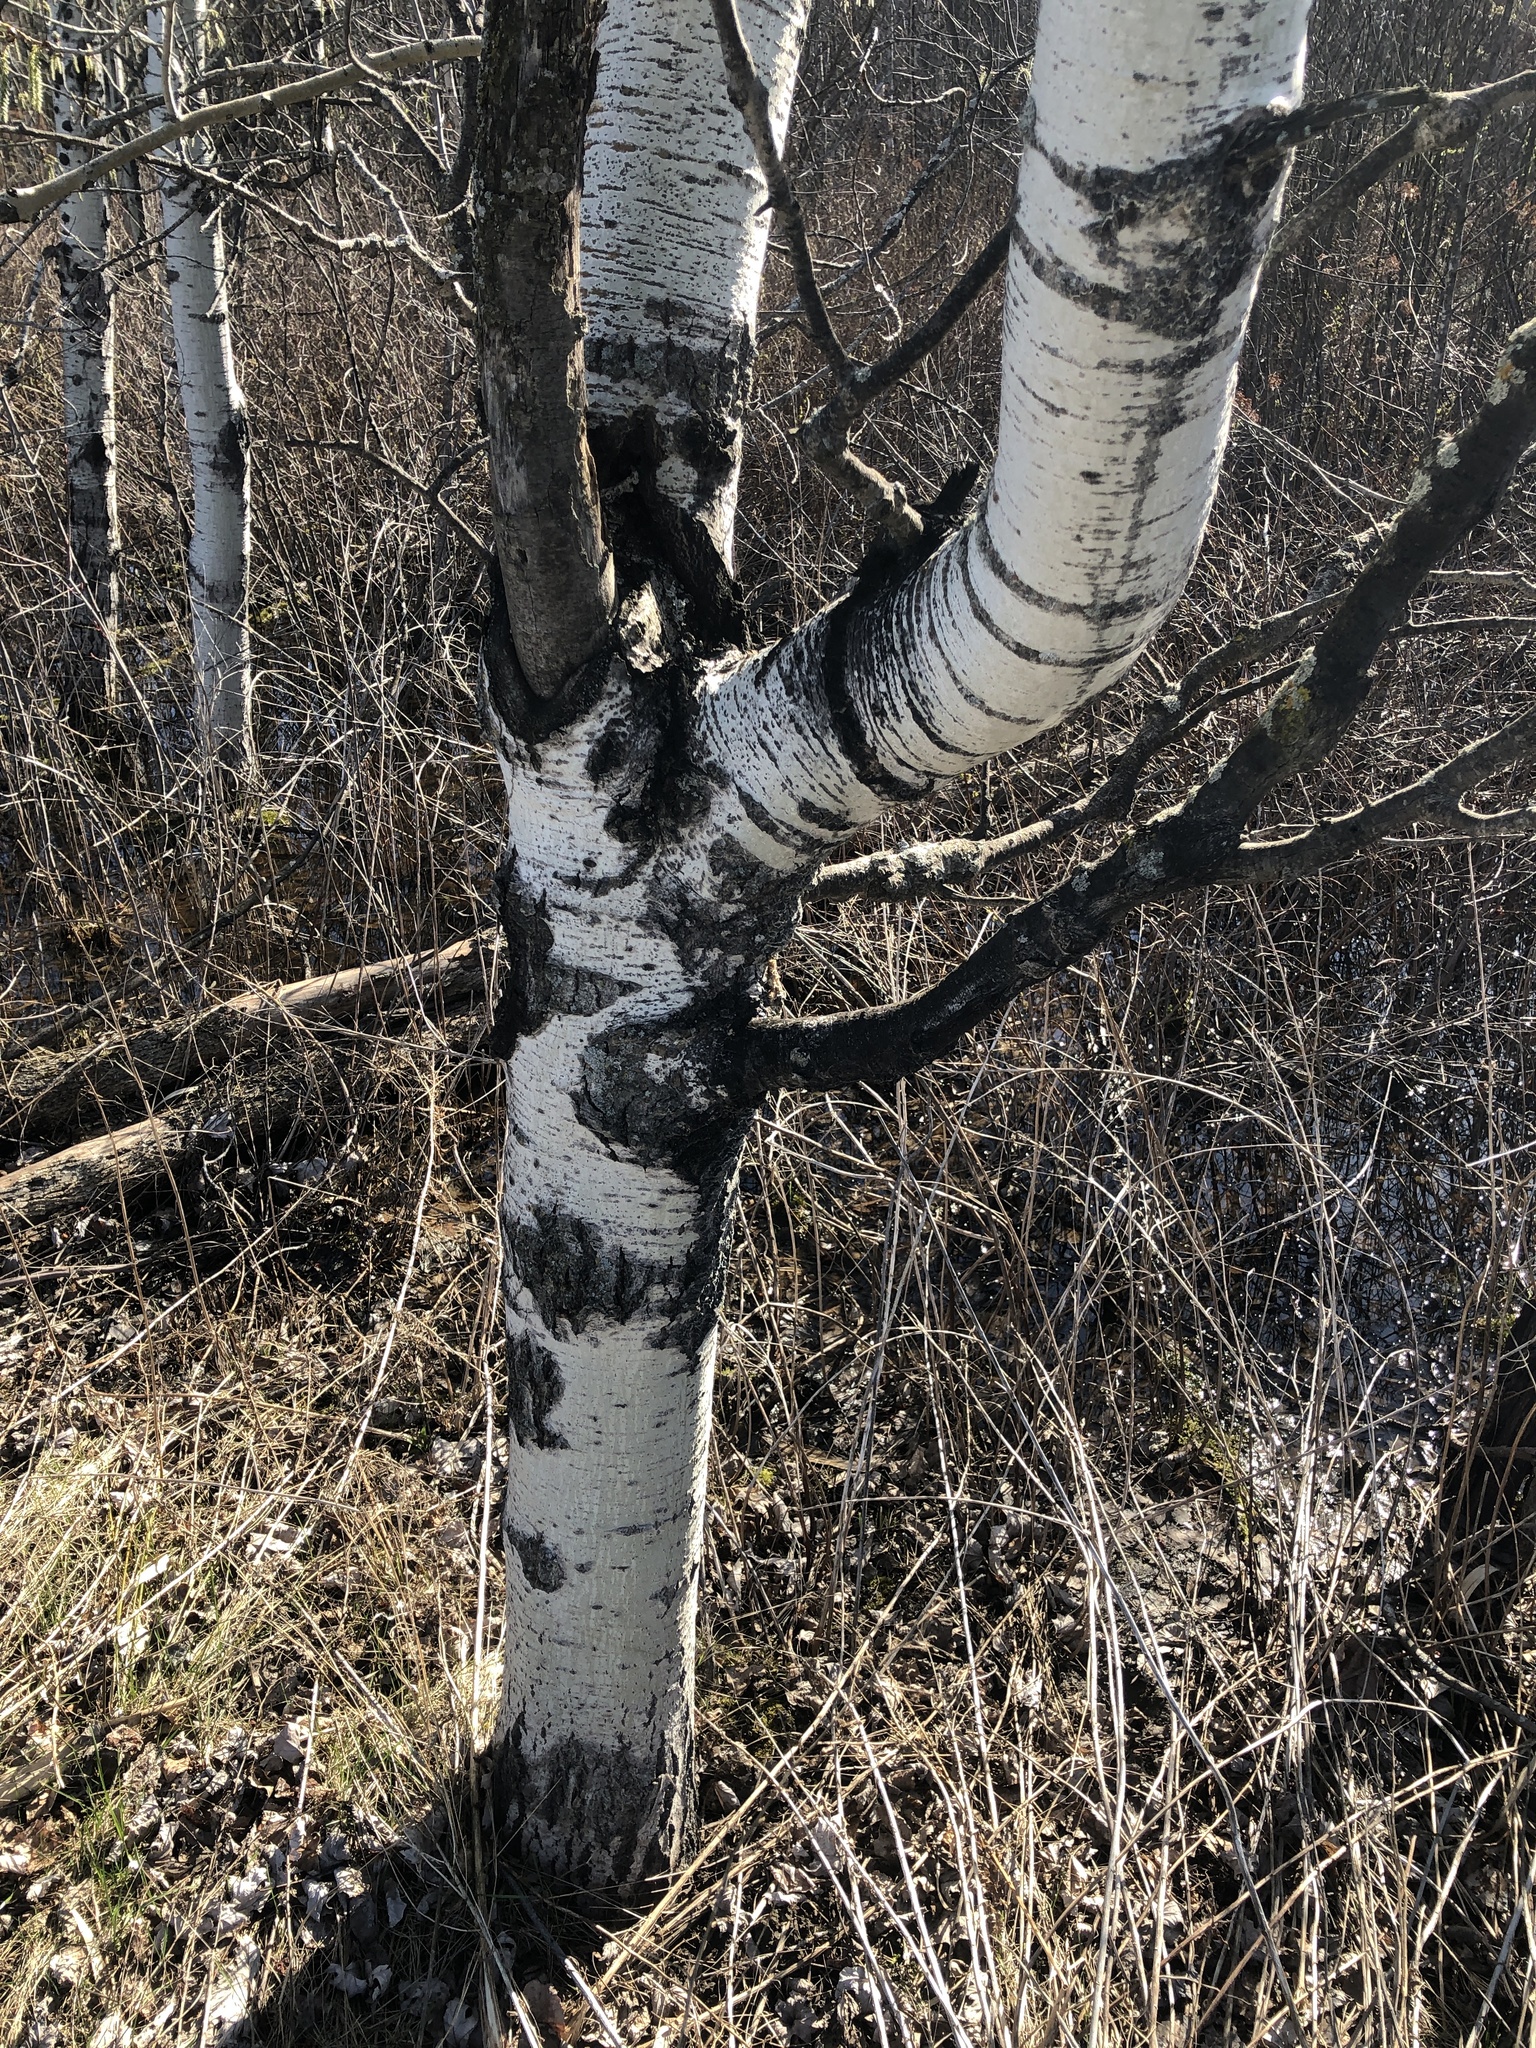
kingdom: Plantae
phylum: Tracheophyta
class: Magnoliopsida
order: Malpighiales
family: Salicaceae
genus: Populus
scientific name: Populus tremuloides
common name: Quaking aspen
